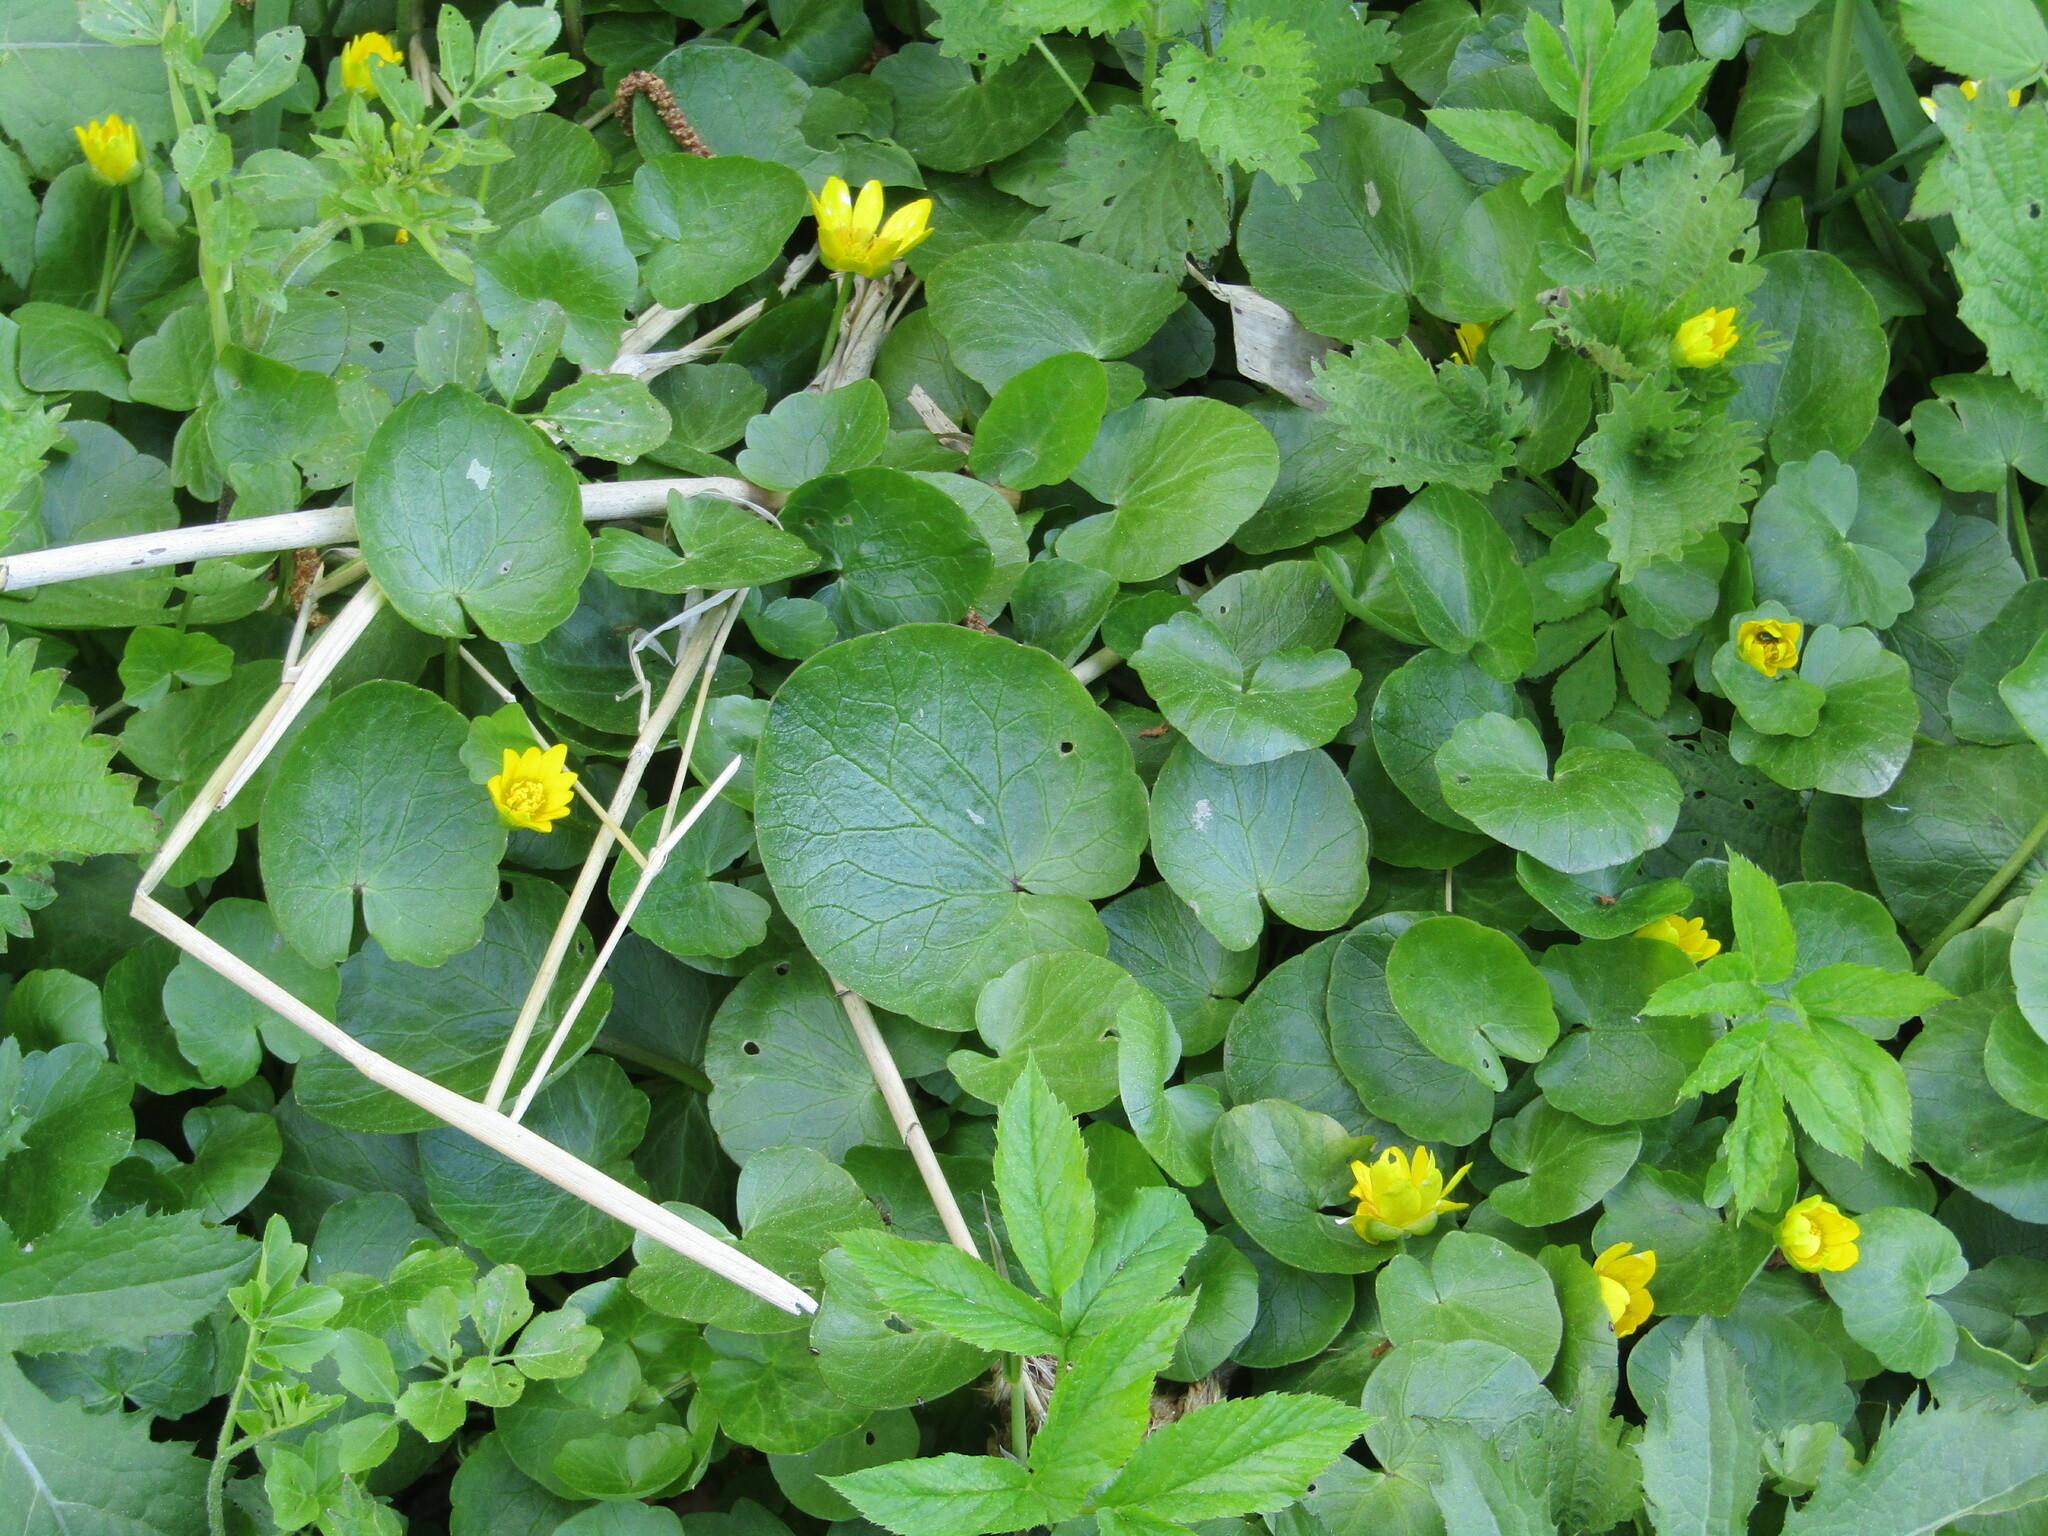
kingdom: Plantae
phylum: Tracheophyta
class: Magnoliopsida
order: Ranunculales
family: Ranunculaceae
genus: Ficaria
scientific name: Ficaria verna
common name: Lesser celandine
